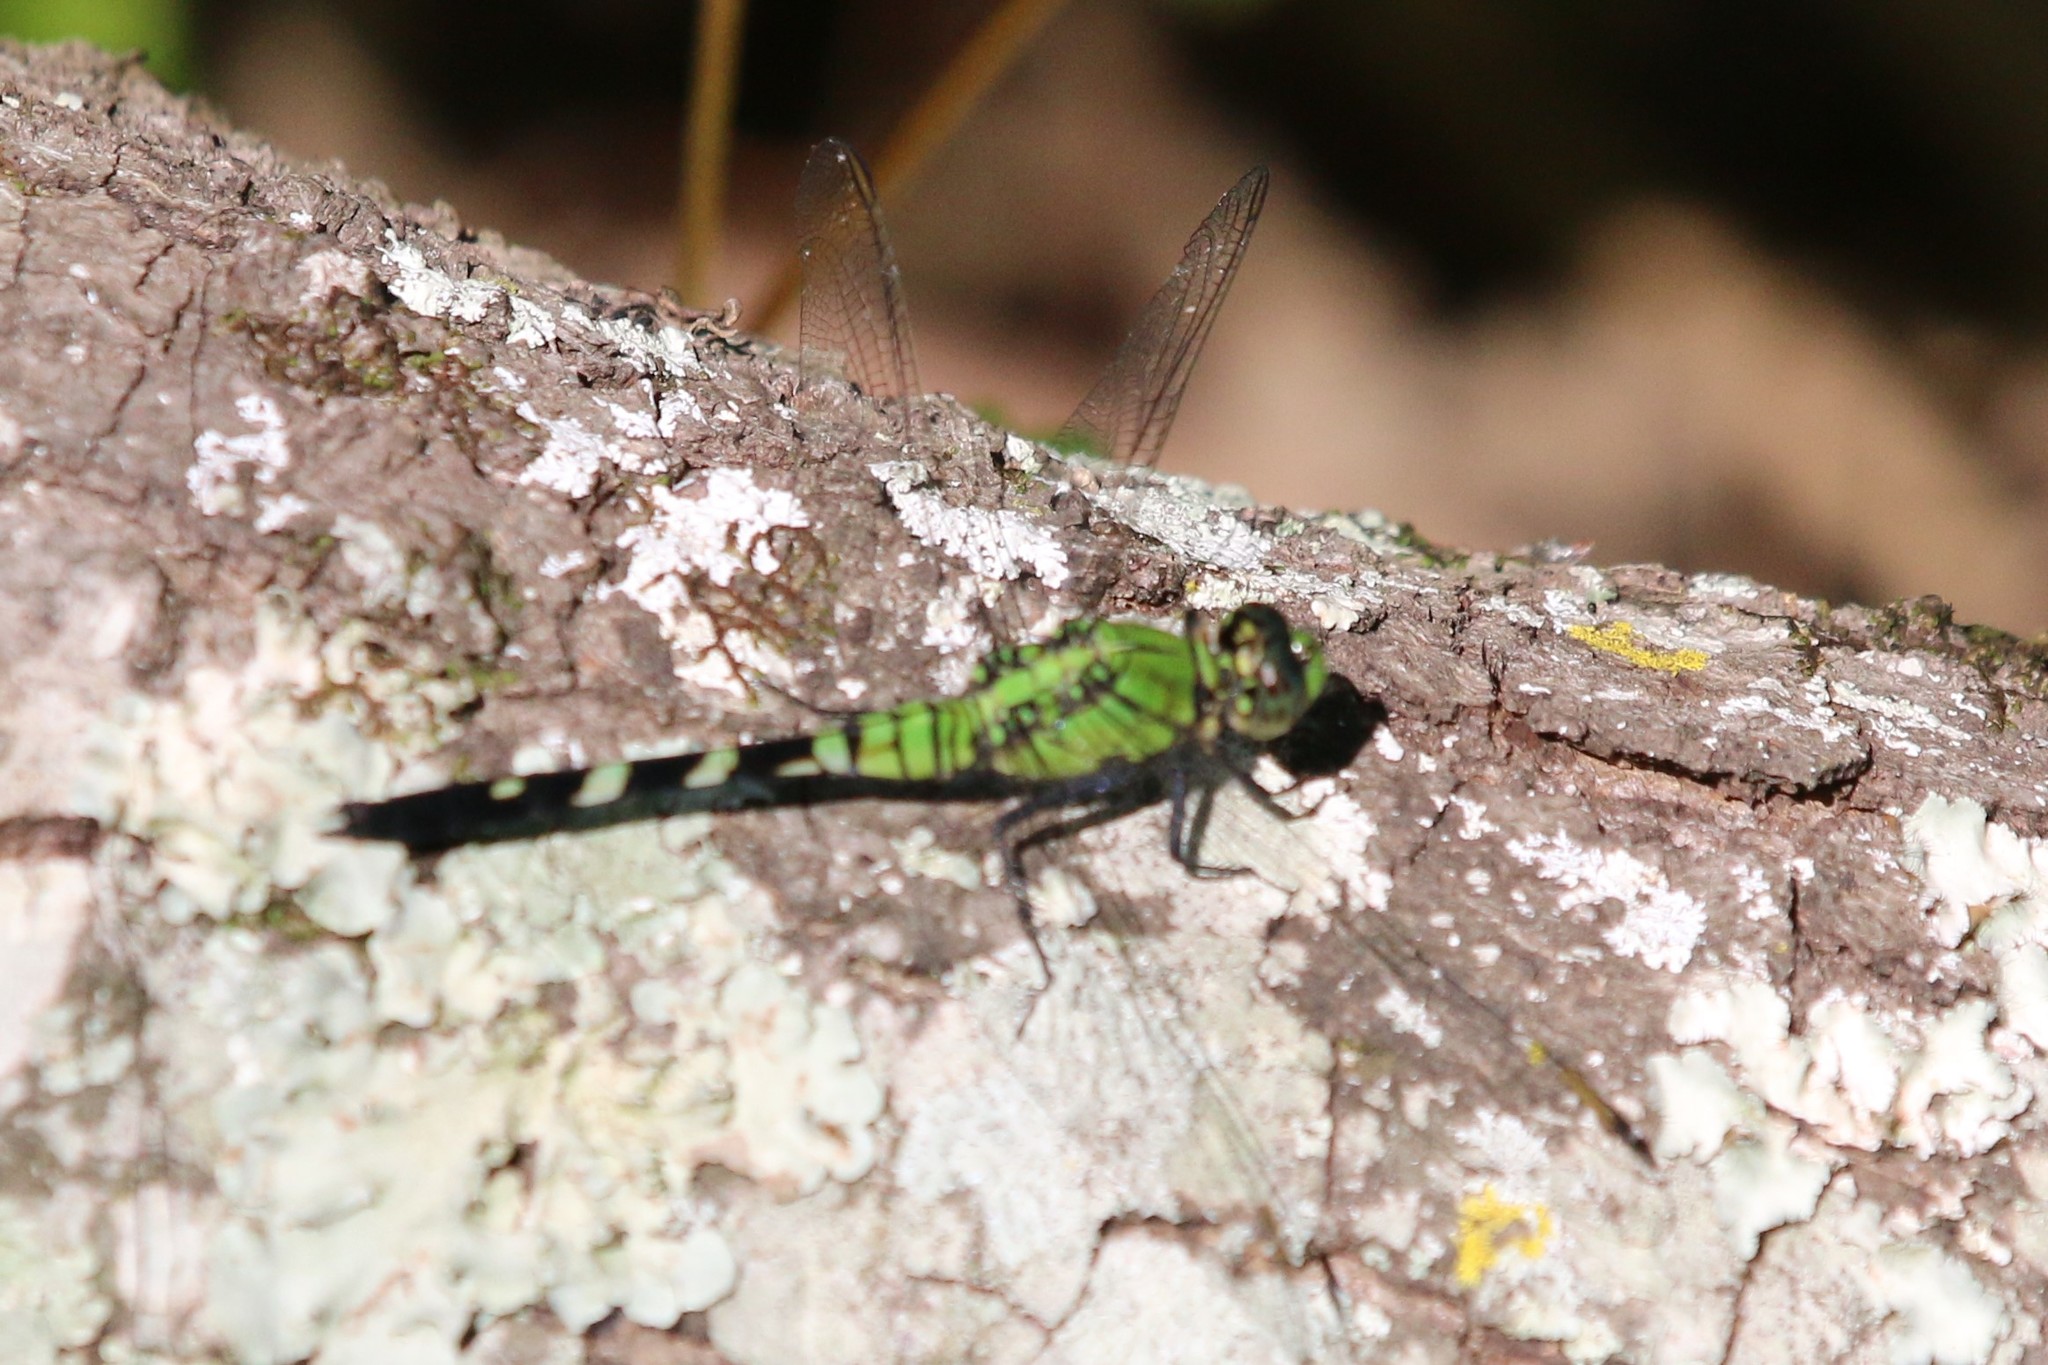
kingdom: Animalia
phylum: Arthropoda
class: Insecta
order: Odonata
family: Libellulidae
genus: Erythemis
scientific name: Erythemis simplicicollis
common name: Eastern pondhawk
